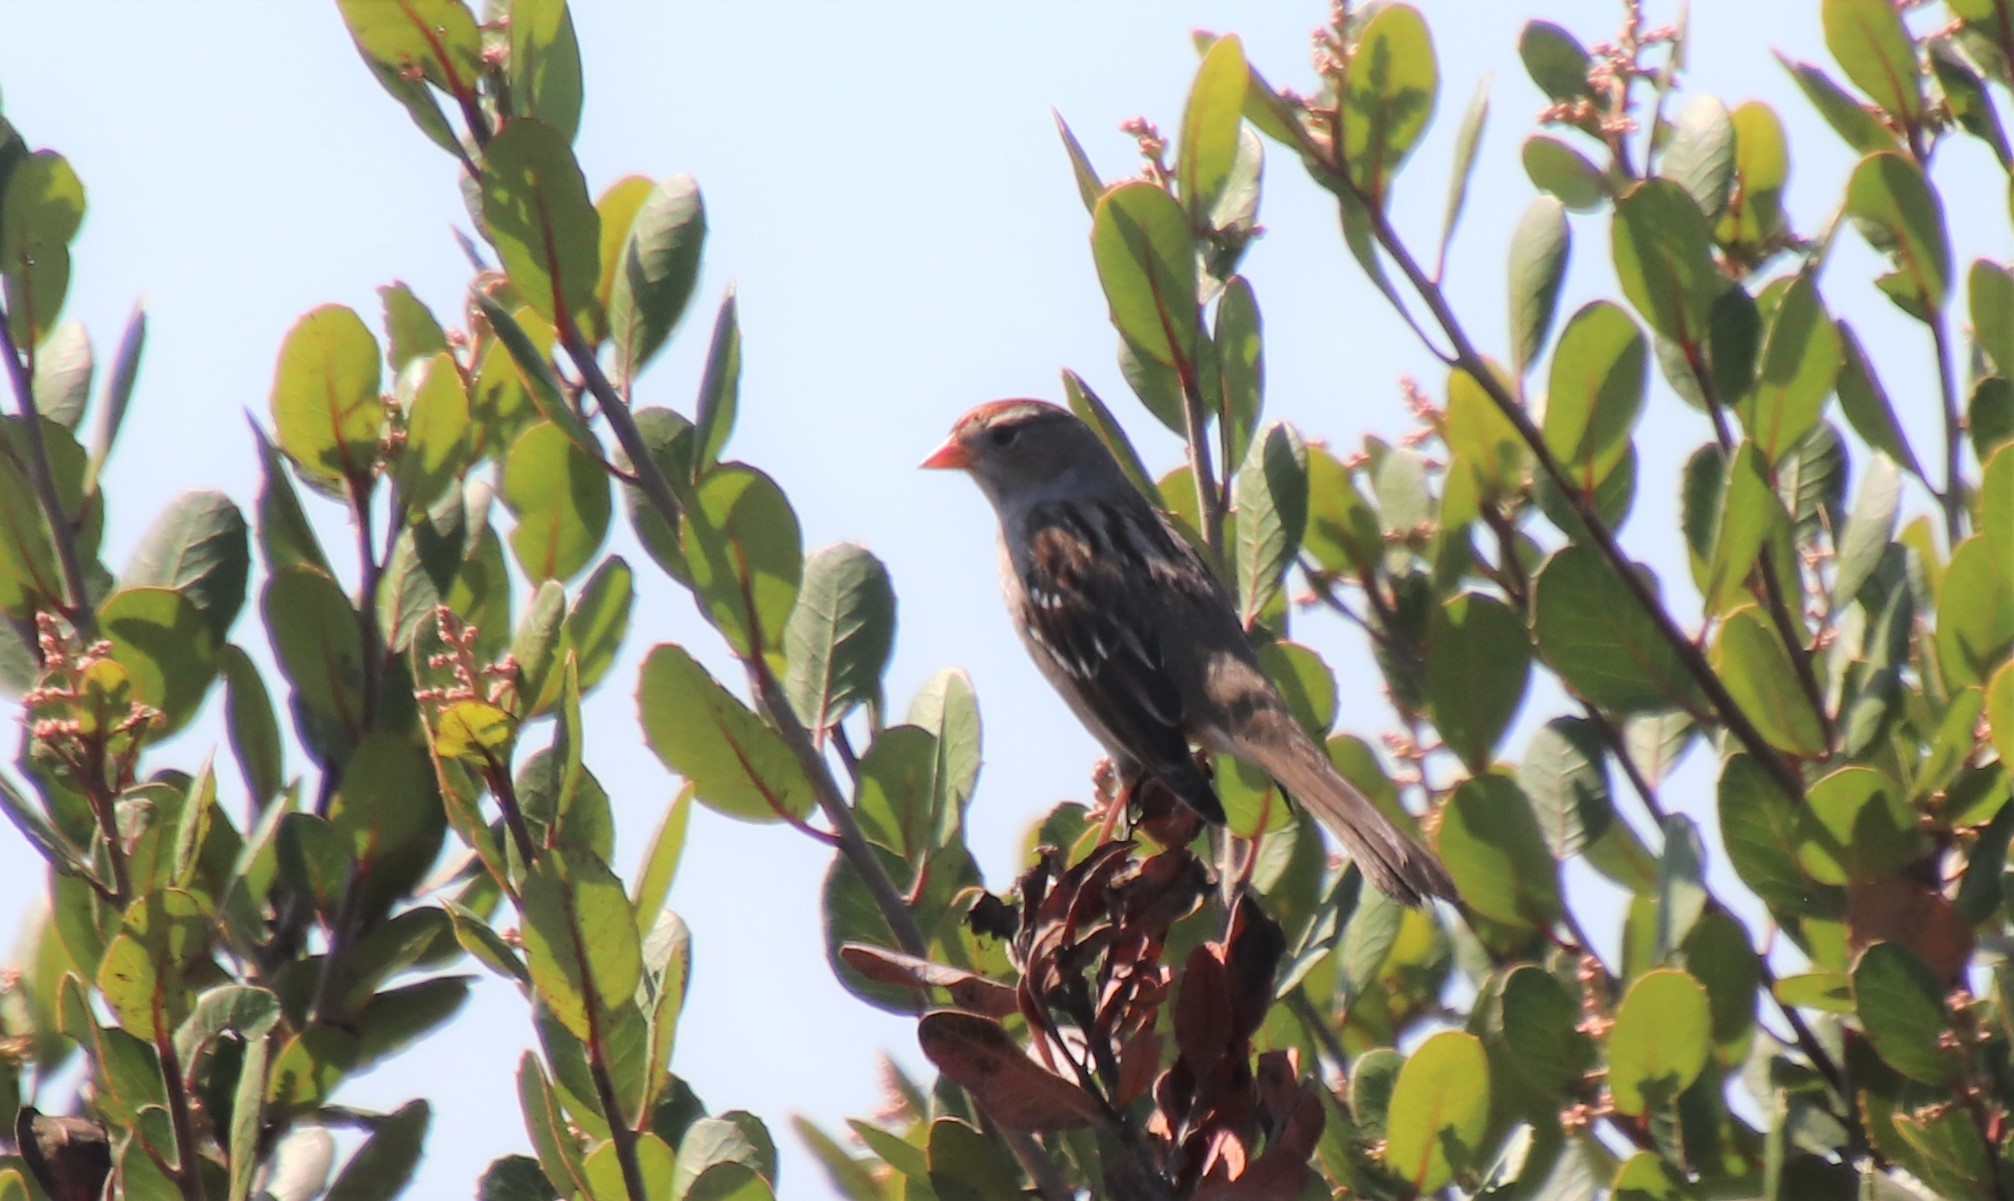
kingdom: Animalia
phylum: Chordata
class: Aves
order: Passeriformes
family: Passerellidae
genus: Zonotrichia
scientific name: Zonotrichia leucophrys
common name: White-crowned sparrow
